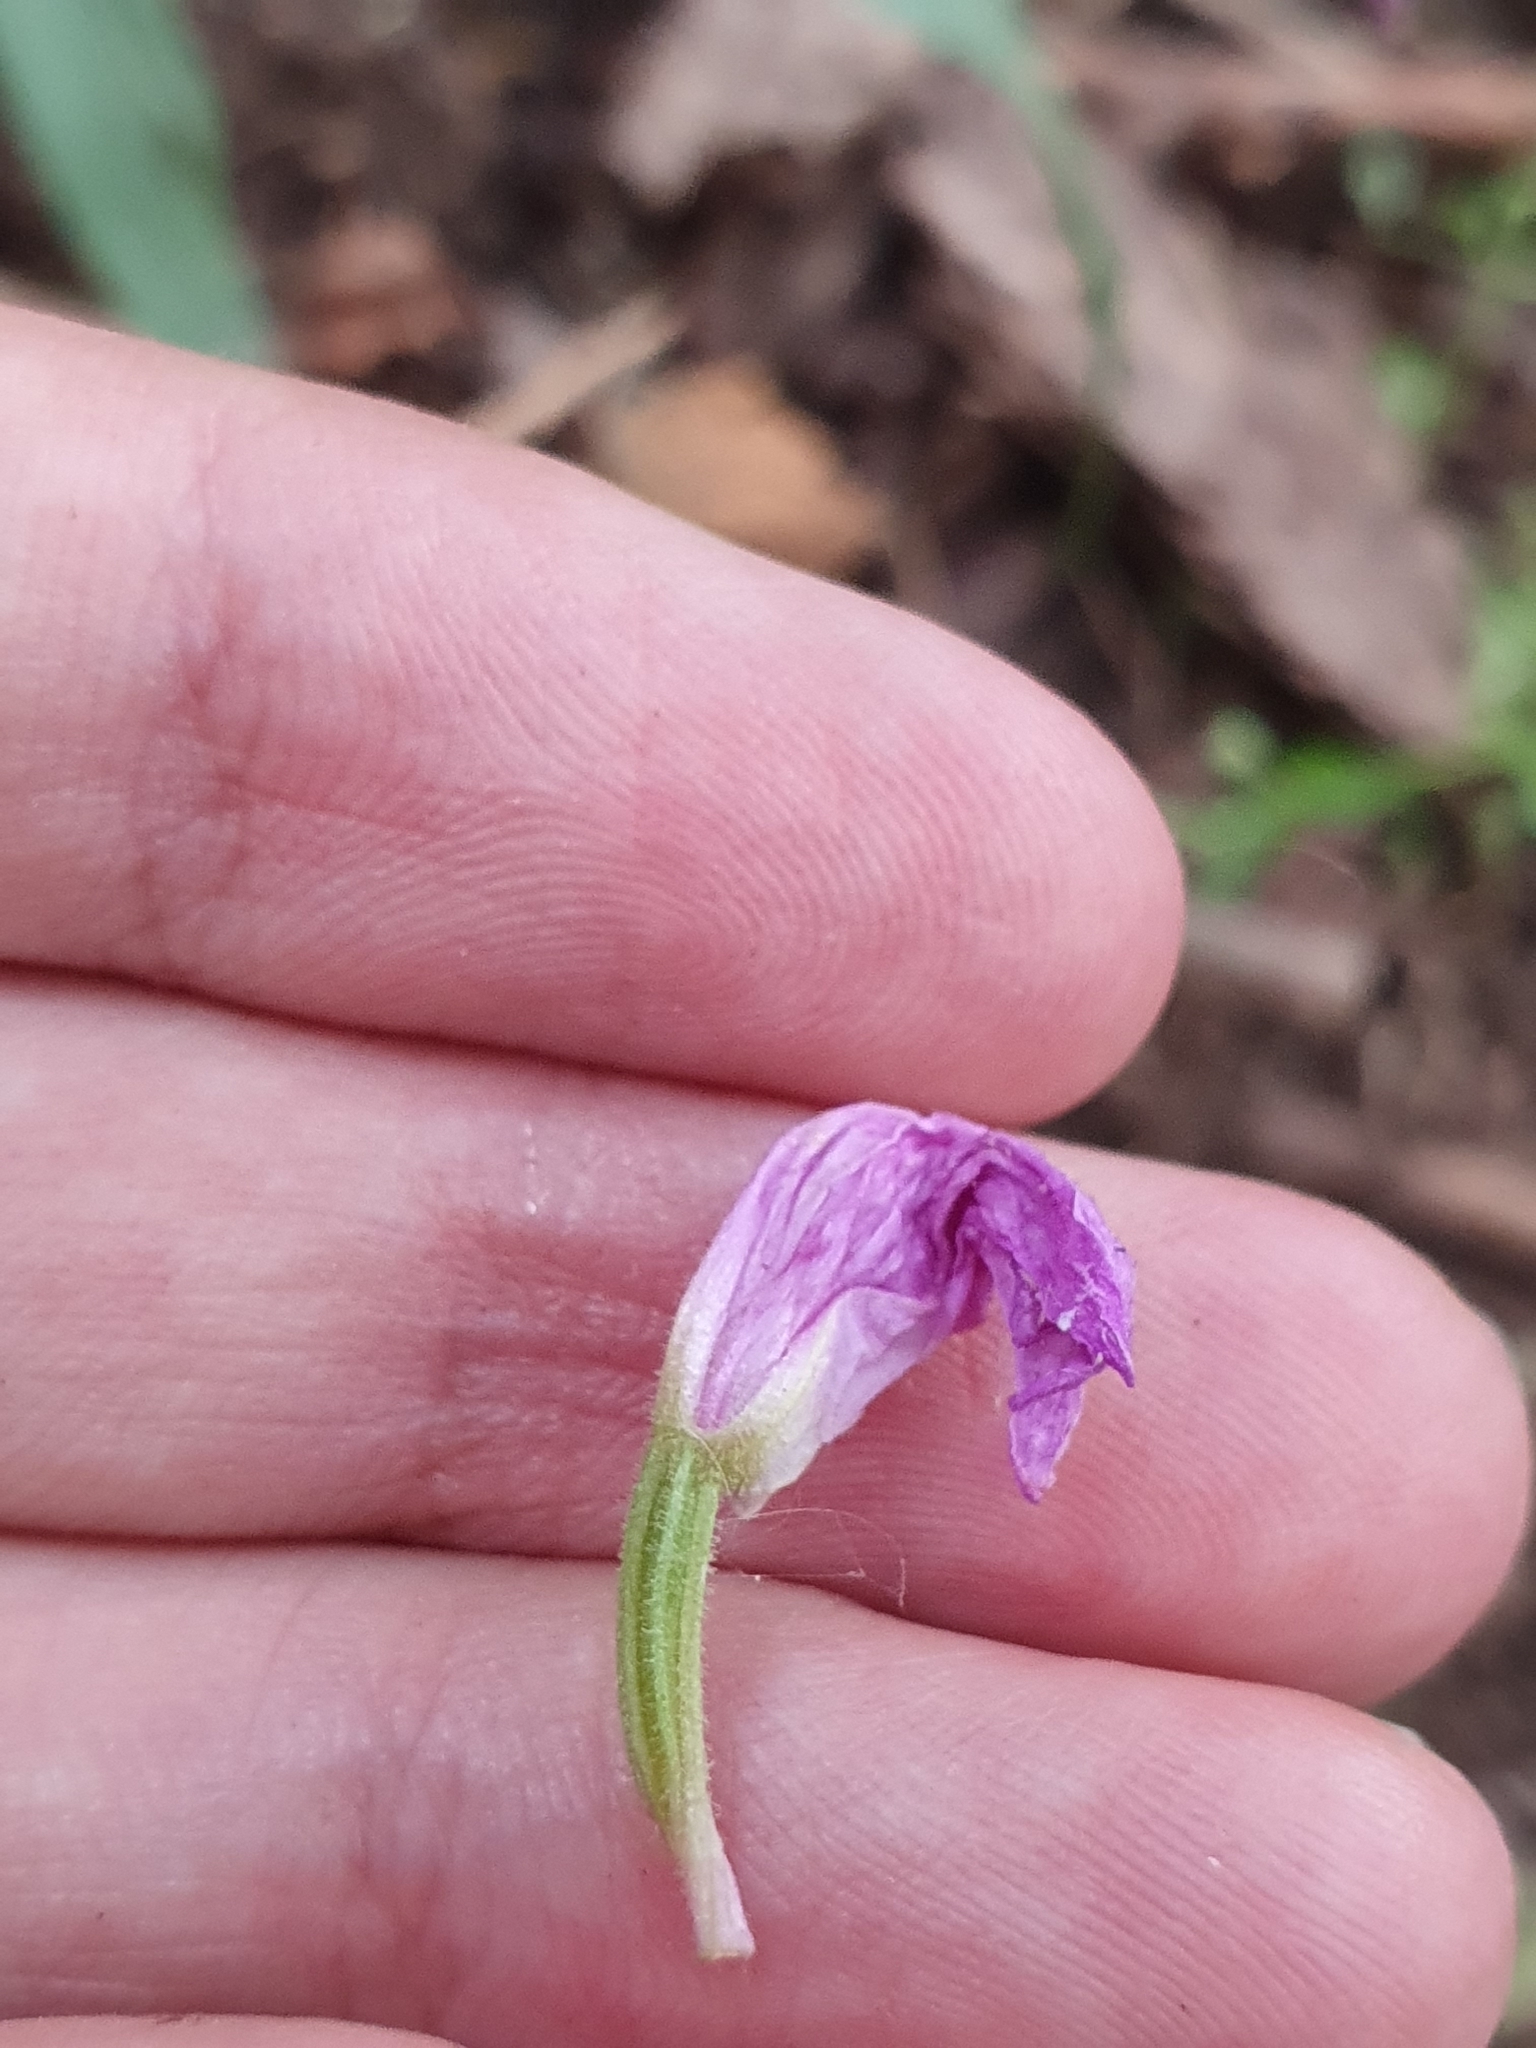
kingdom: Plantae
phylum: Tracheophyta
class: Liliopsida
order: Asparagales
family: Orchidaceae
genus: Cephalanthera
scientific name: Cephalanthera rubra
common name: Red helleborine
